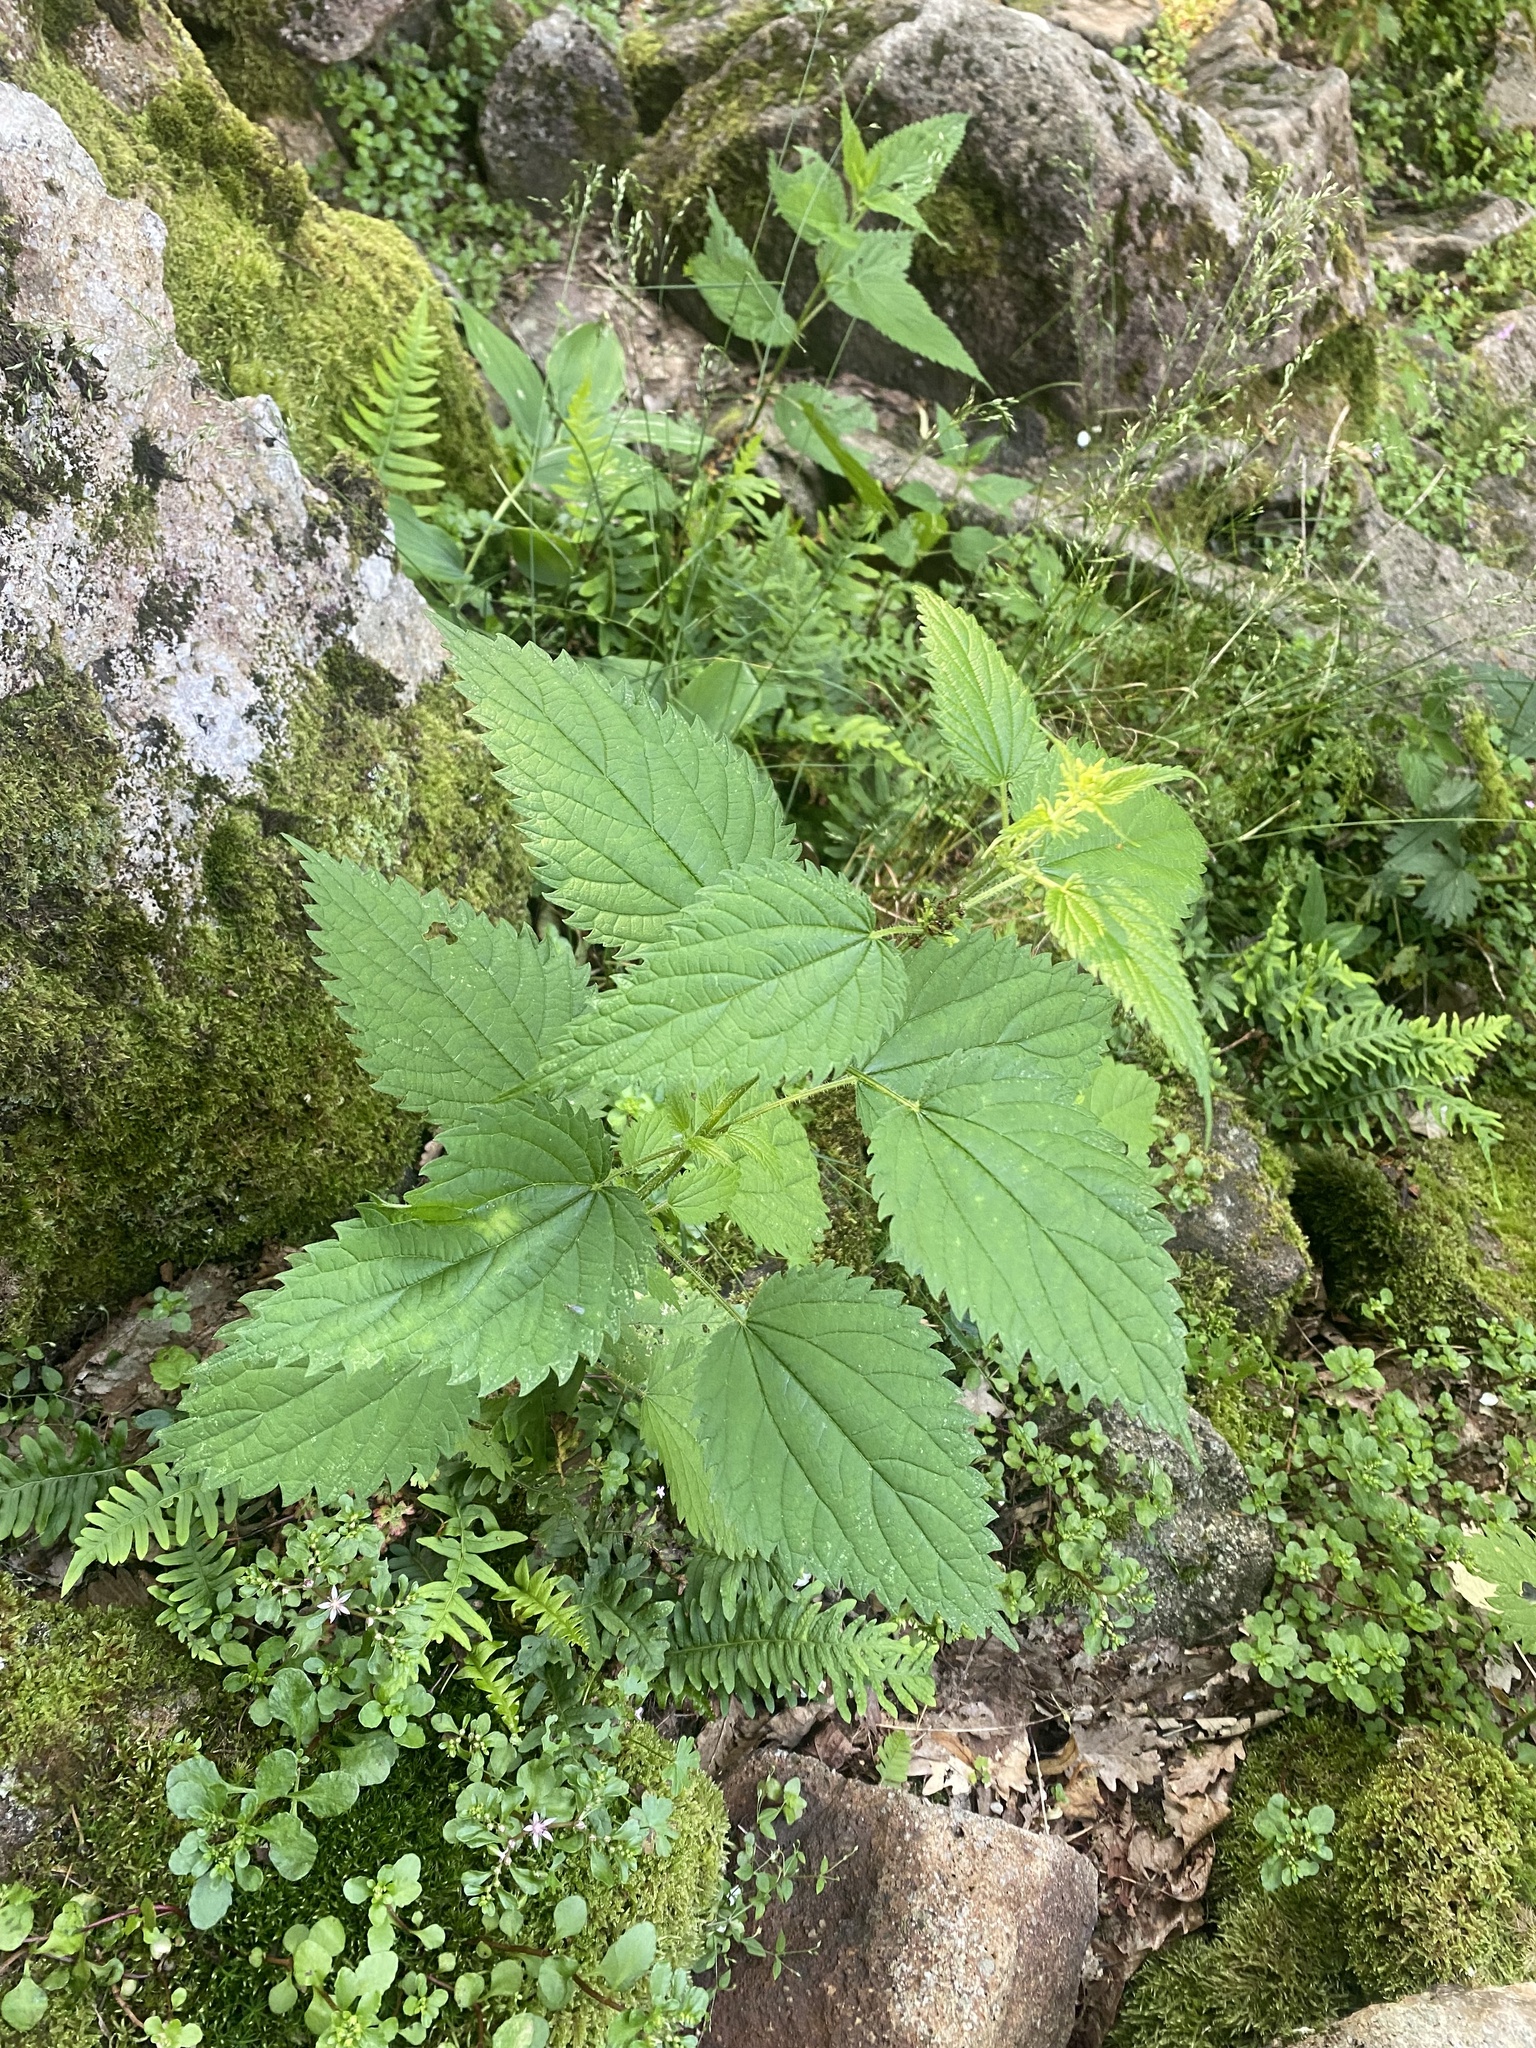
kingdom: Plantae
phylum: Tracheophyta
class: Magnoliopsida
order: Rosales
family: Urticaceae
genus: Urtica
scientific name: Urtica dioica
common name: Common nettle
